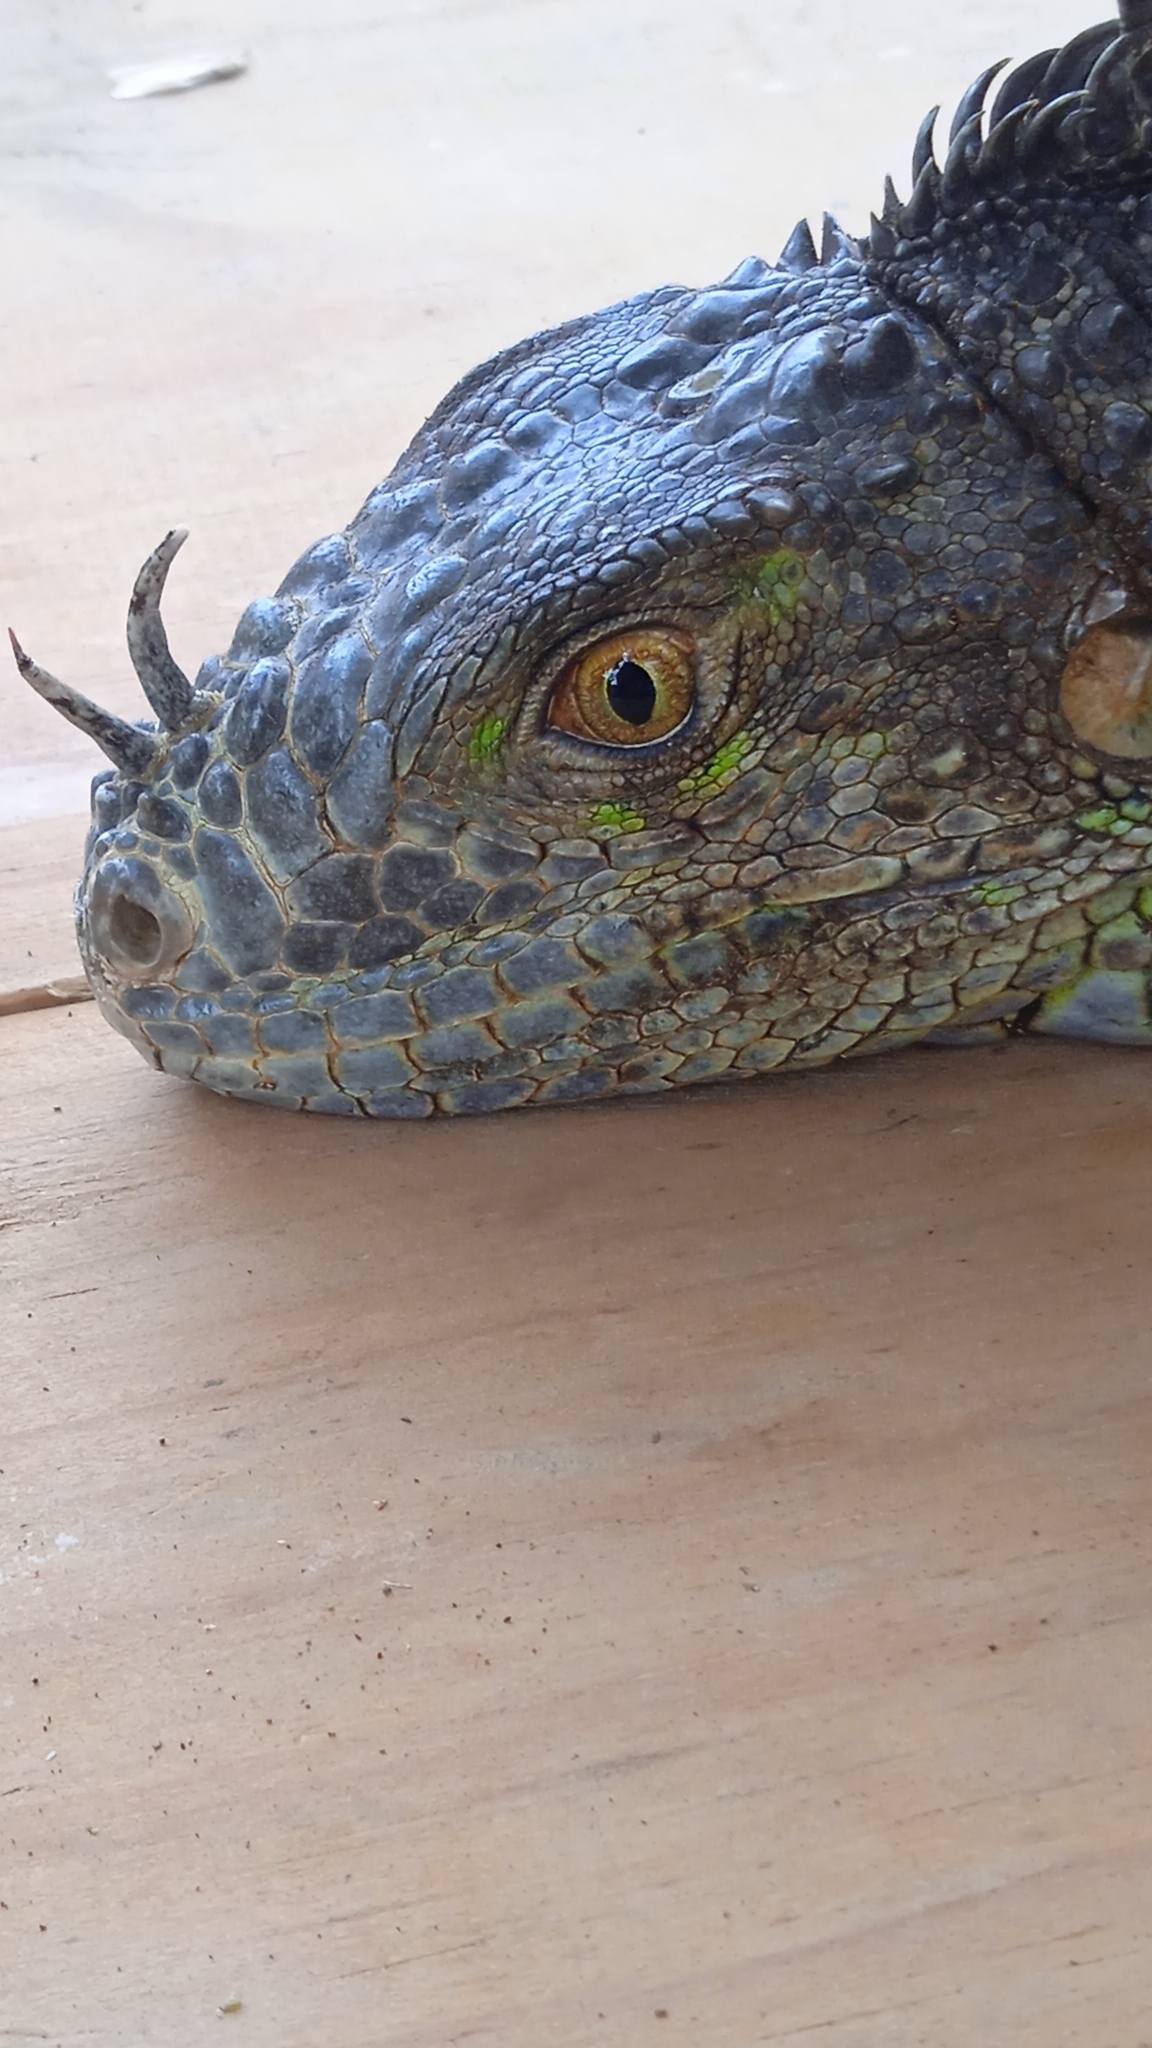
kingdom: Animalia
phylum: Chordata
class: Squamata
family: Iguanidae
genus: Iguana
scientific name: Iguana iguana
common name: Green iguana
